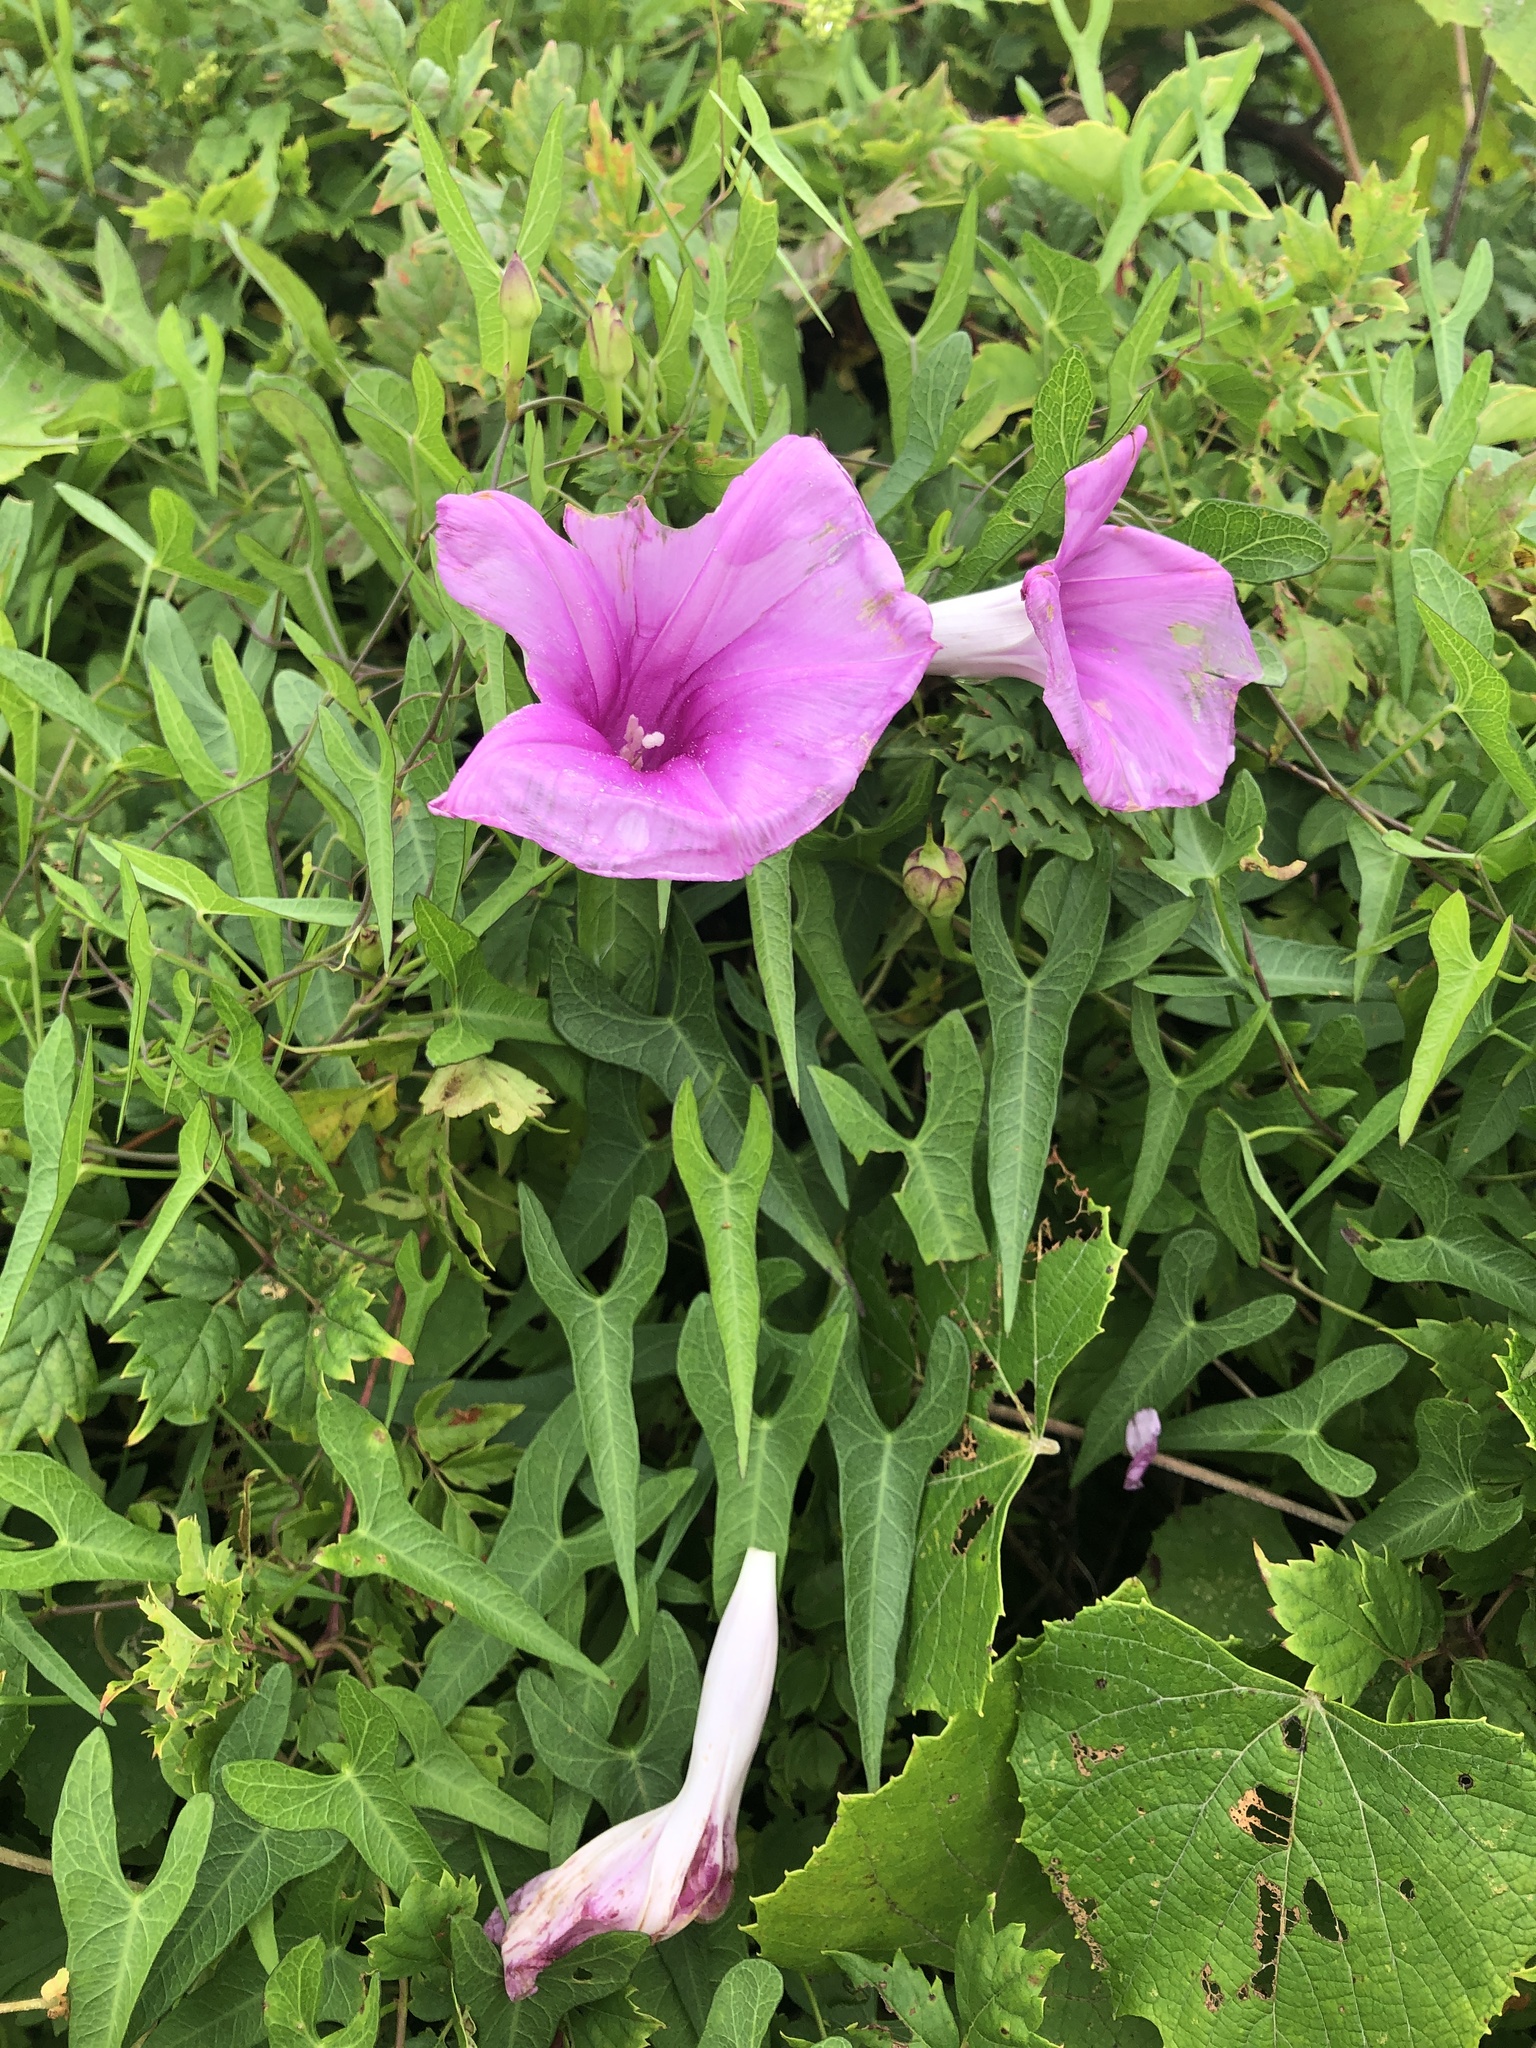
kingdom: Plantae
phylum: Tracheophyta
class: Magnoliopsida
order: Solanales
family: Convolvulaceae
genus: Ipomoea
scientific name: Ipomoea sagittata
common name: Saltmarsh morning glory
